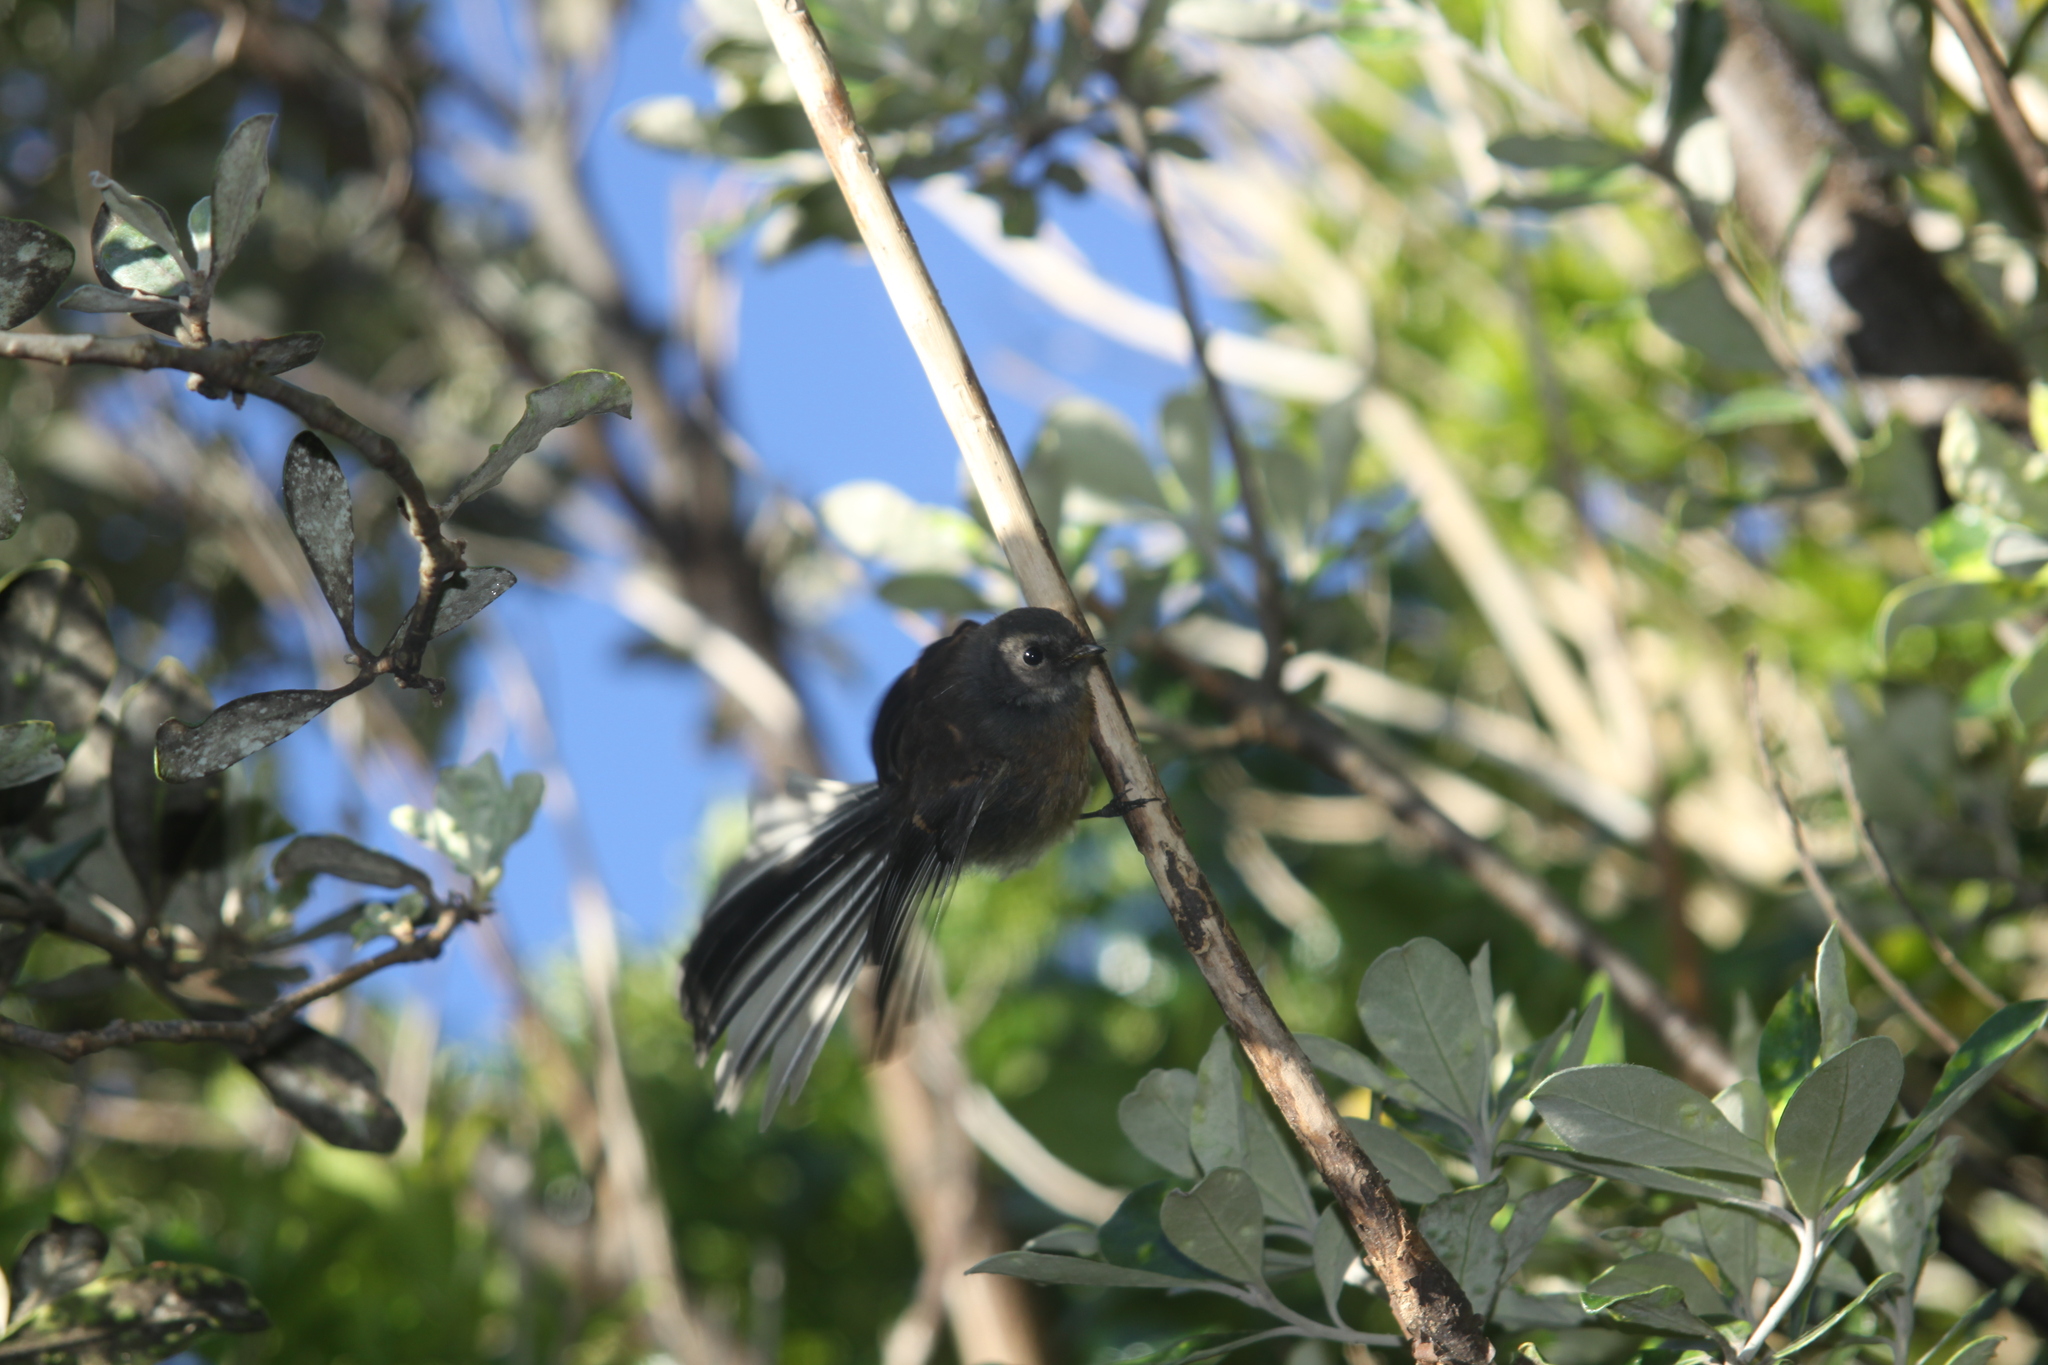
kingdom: Animalia
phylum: Chordata
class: Aves
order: Passeriformes
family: Rhipiduridae
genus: Rhipidura
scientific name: Rhipidura fuliginosa
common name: New zealand fantail
